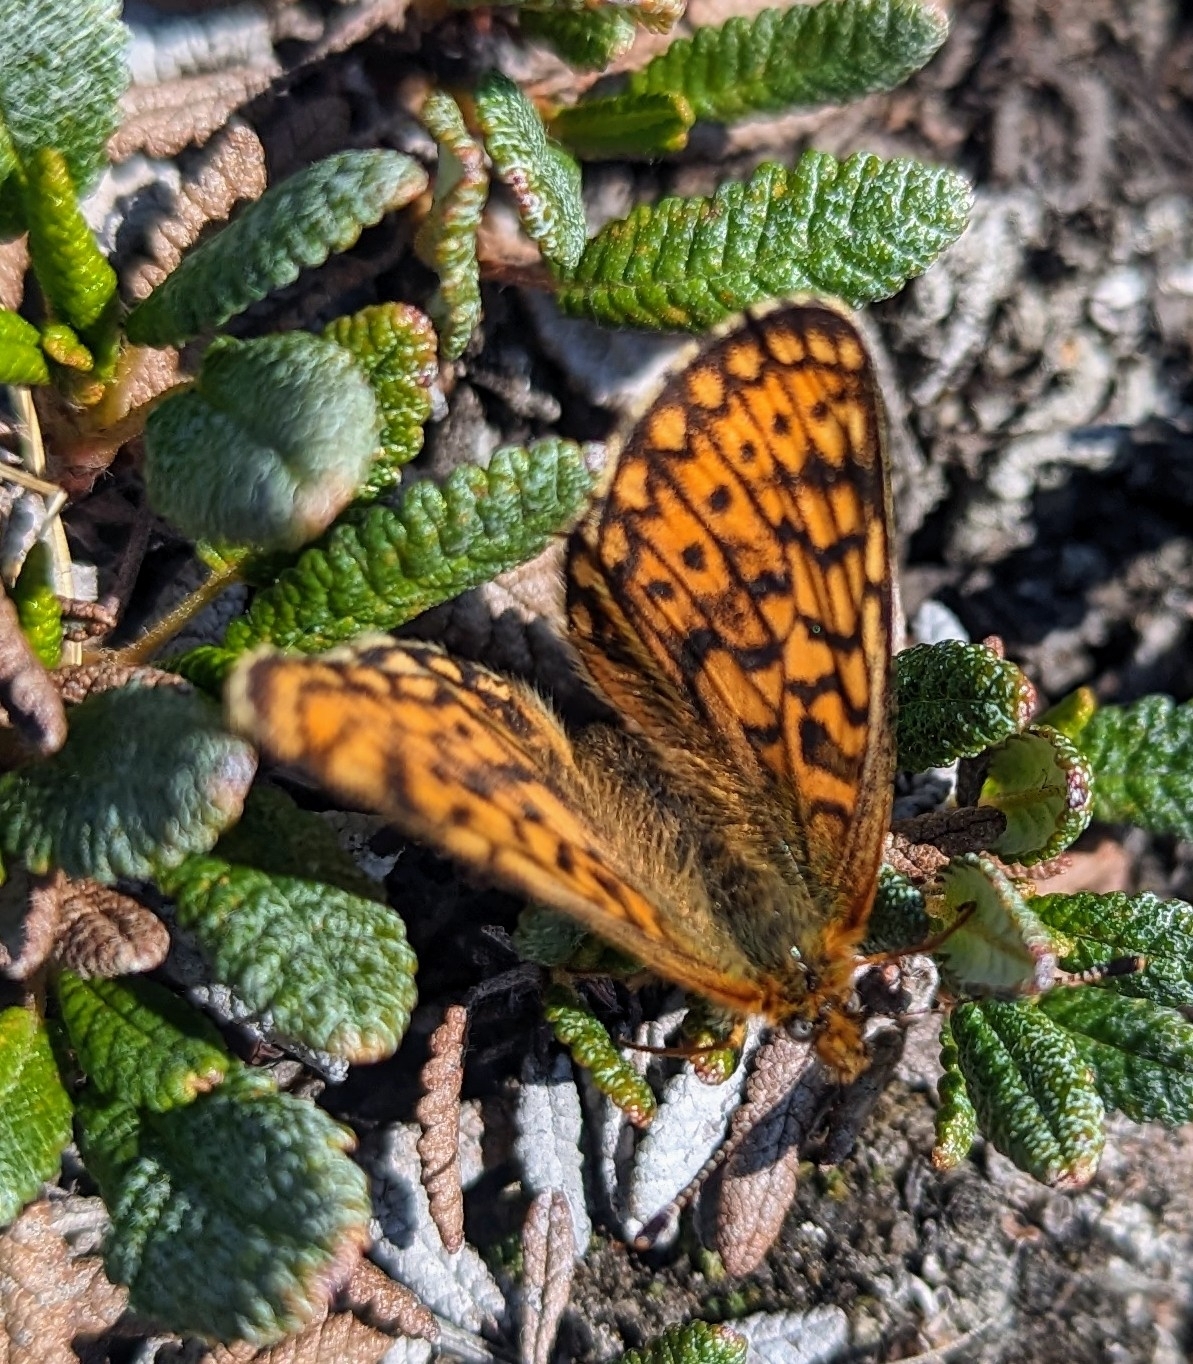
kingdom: Animalia
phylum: Arthropoda
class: Insecta
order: Lepidoptera
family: Nymphalidae
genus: Boloria
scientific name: Boloria eunomia
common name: Bog fritillary
